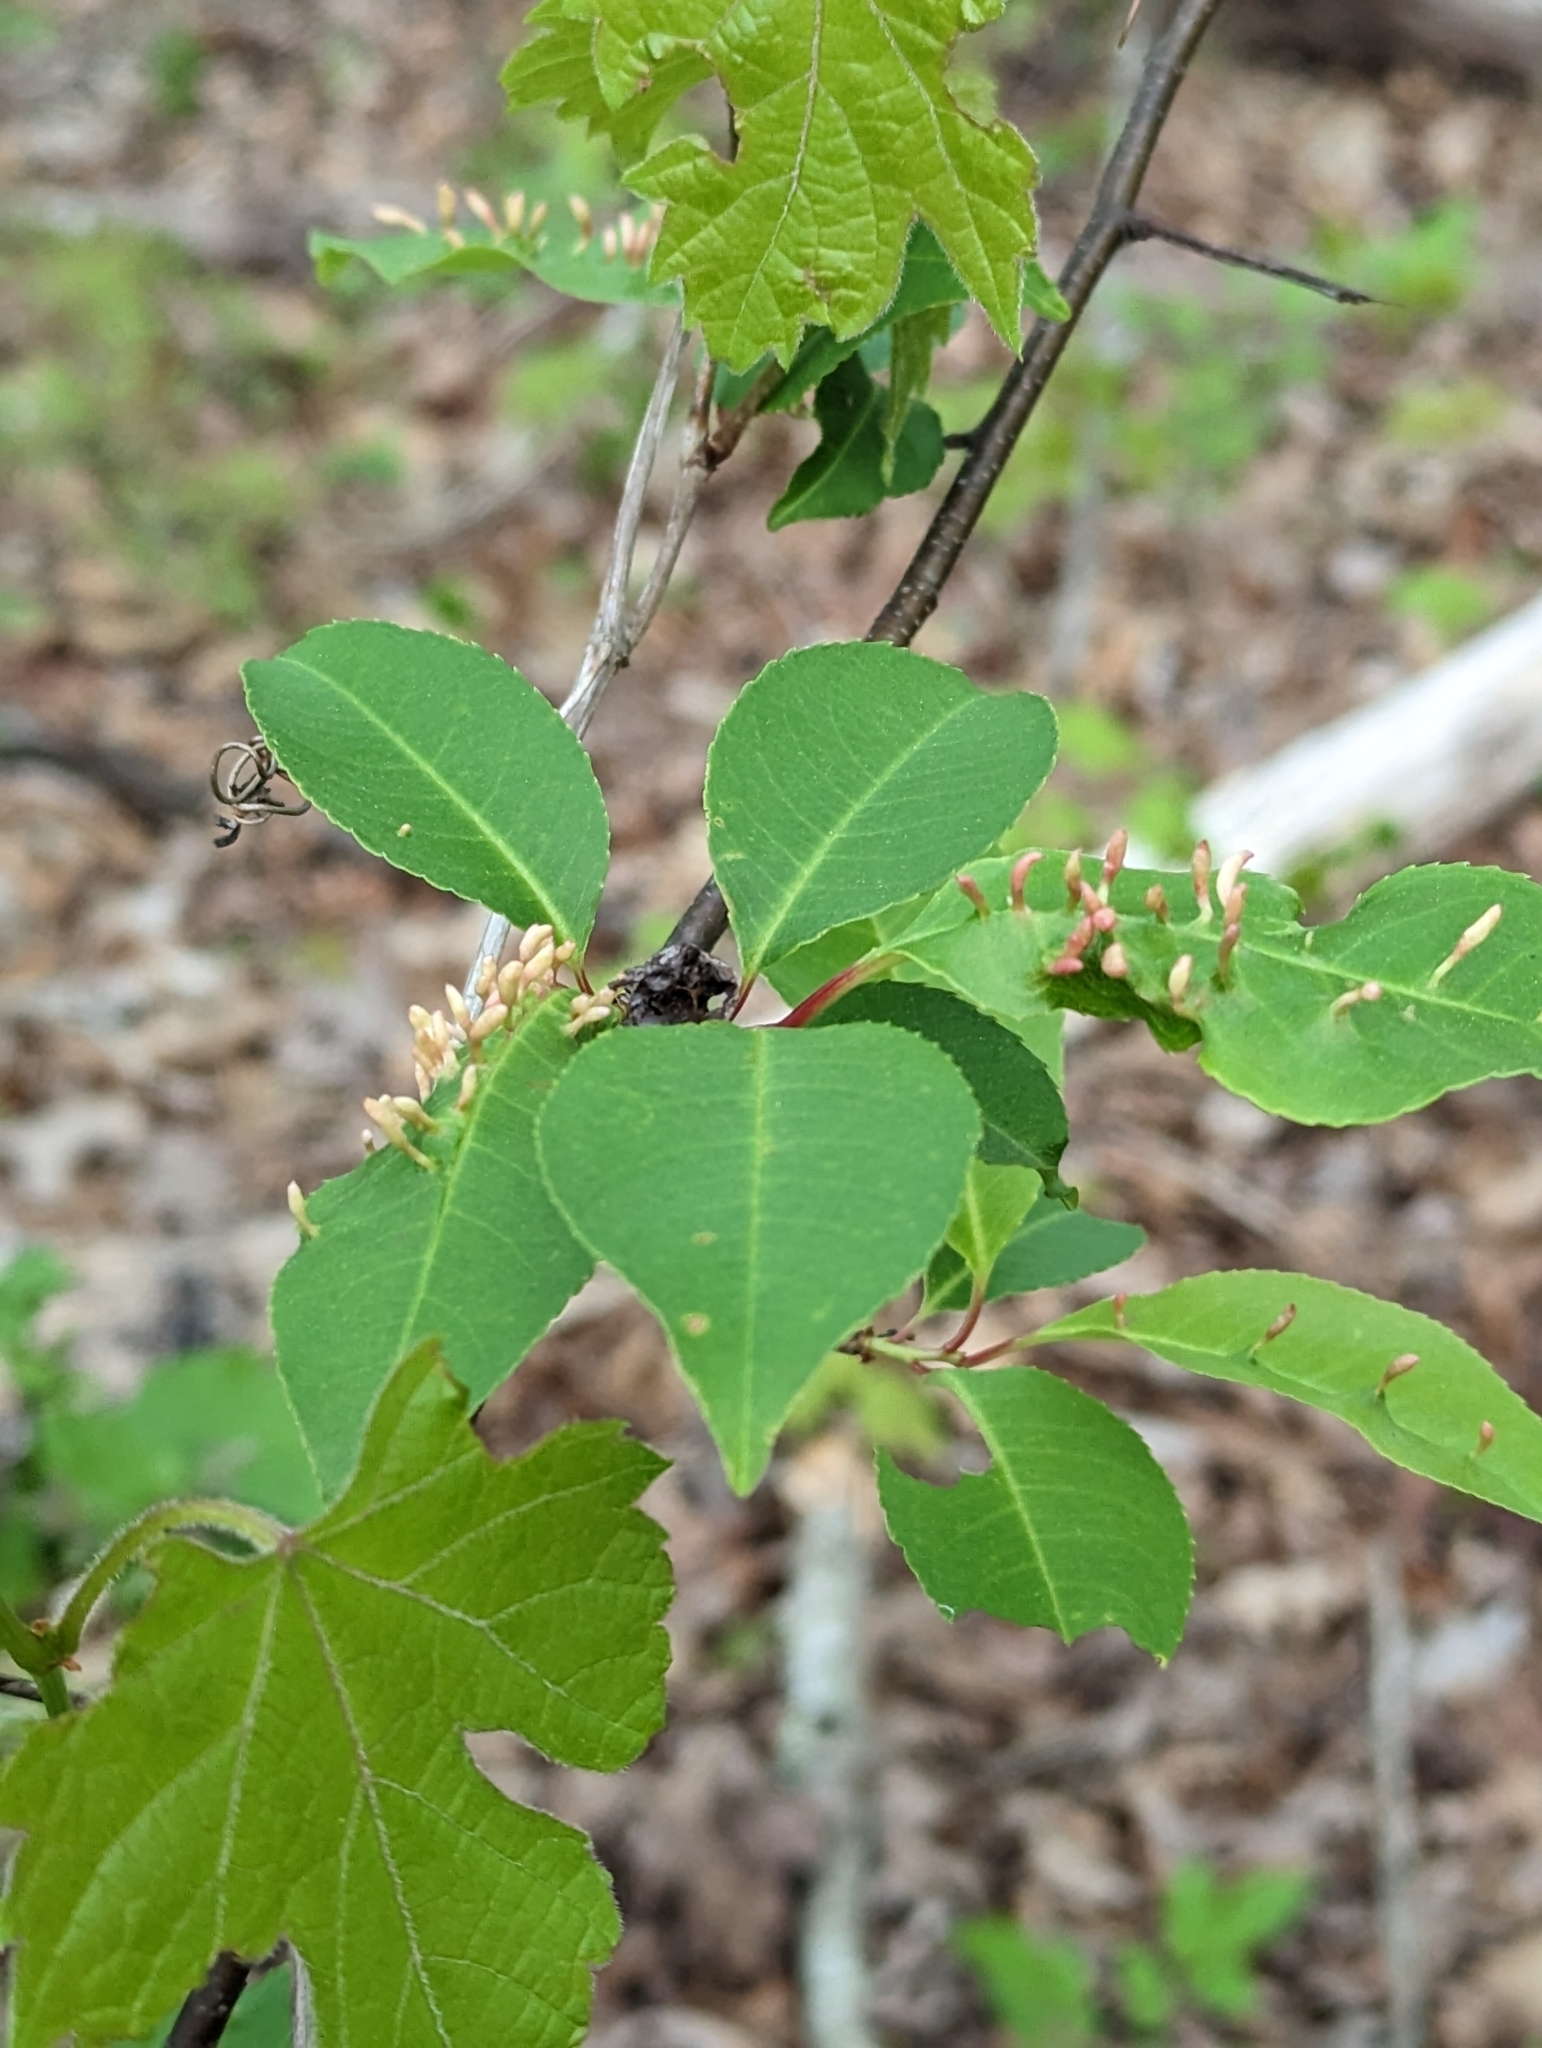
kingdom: Animalia
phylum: Arthropoda
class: Arachnida
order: Trombidiformes
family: Eriophyidae
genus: Eriophyes
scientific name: Eriophyes
